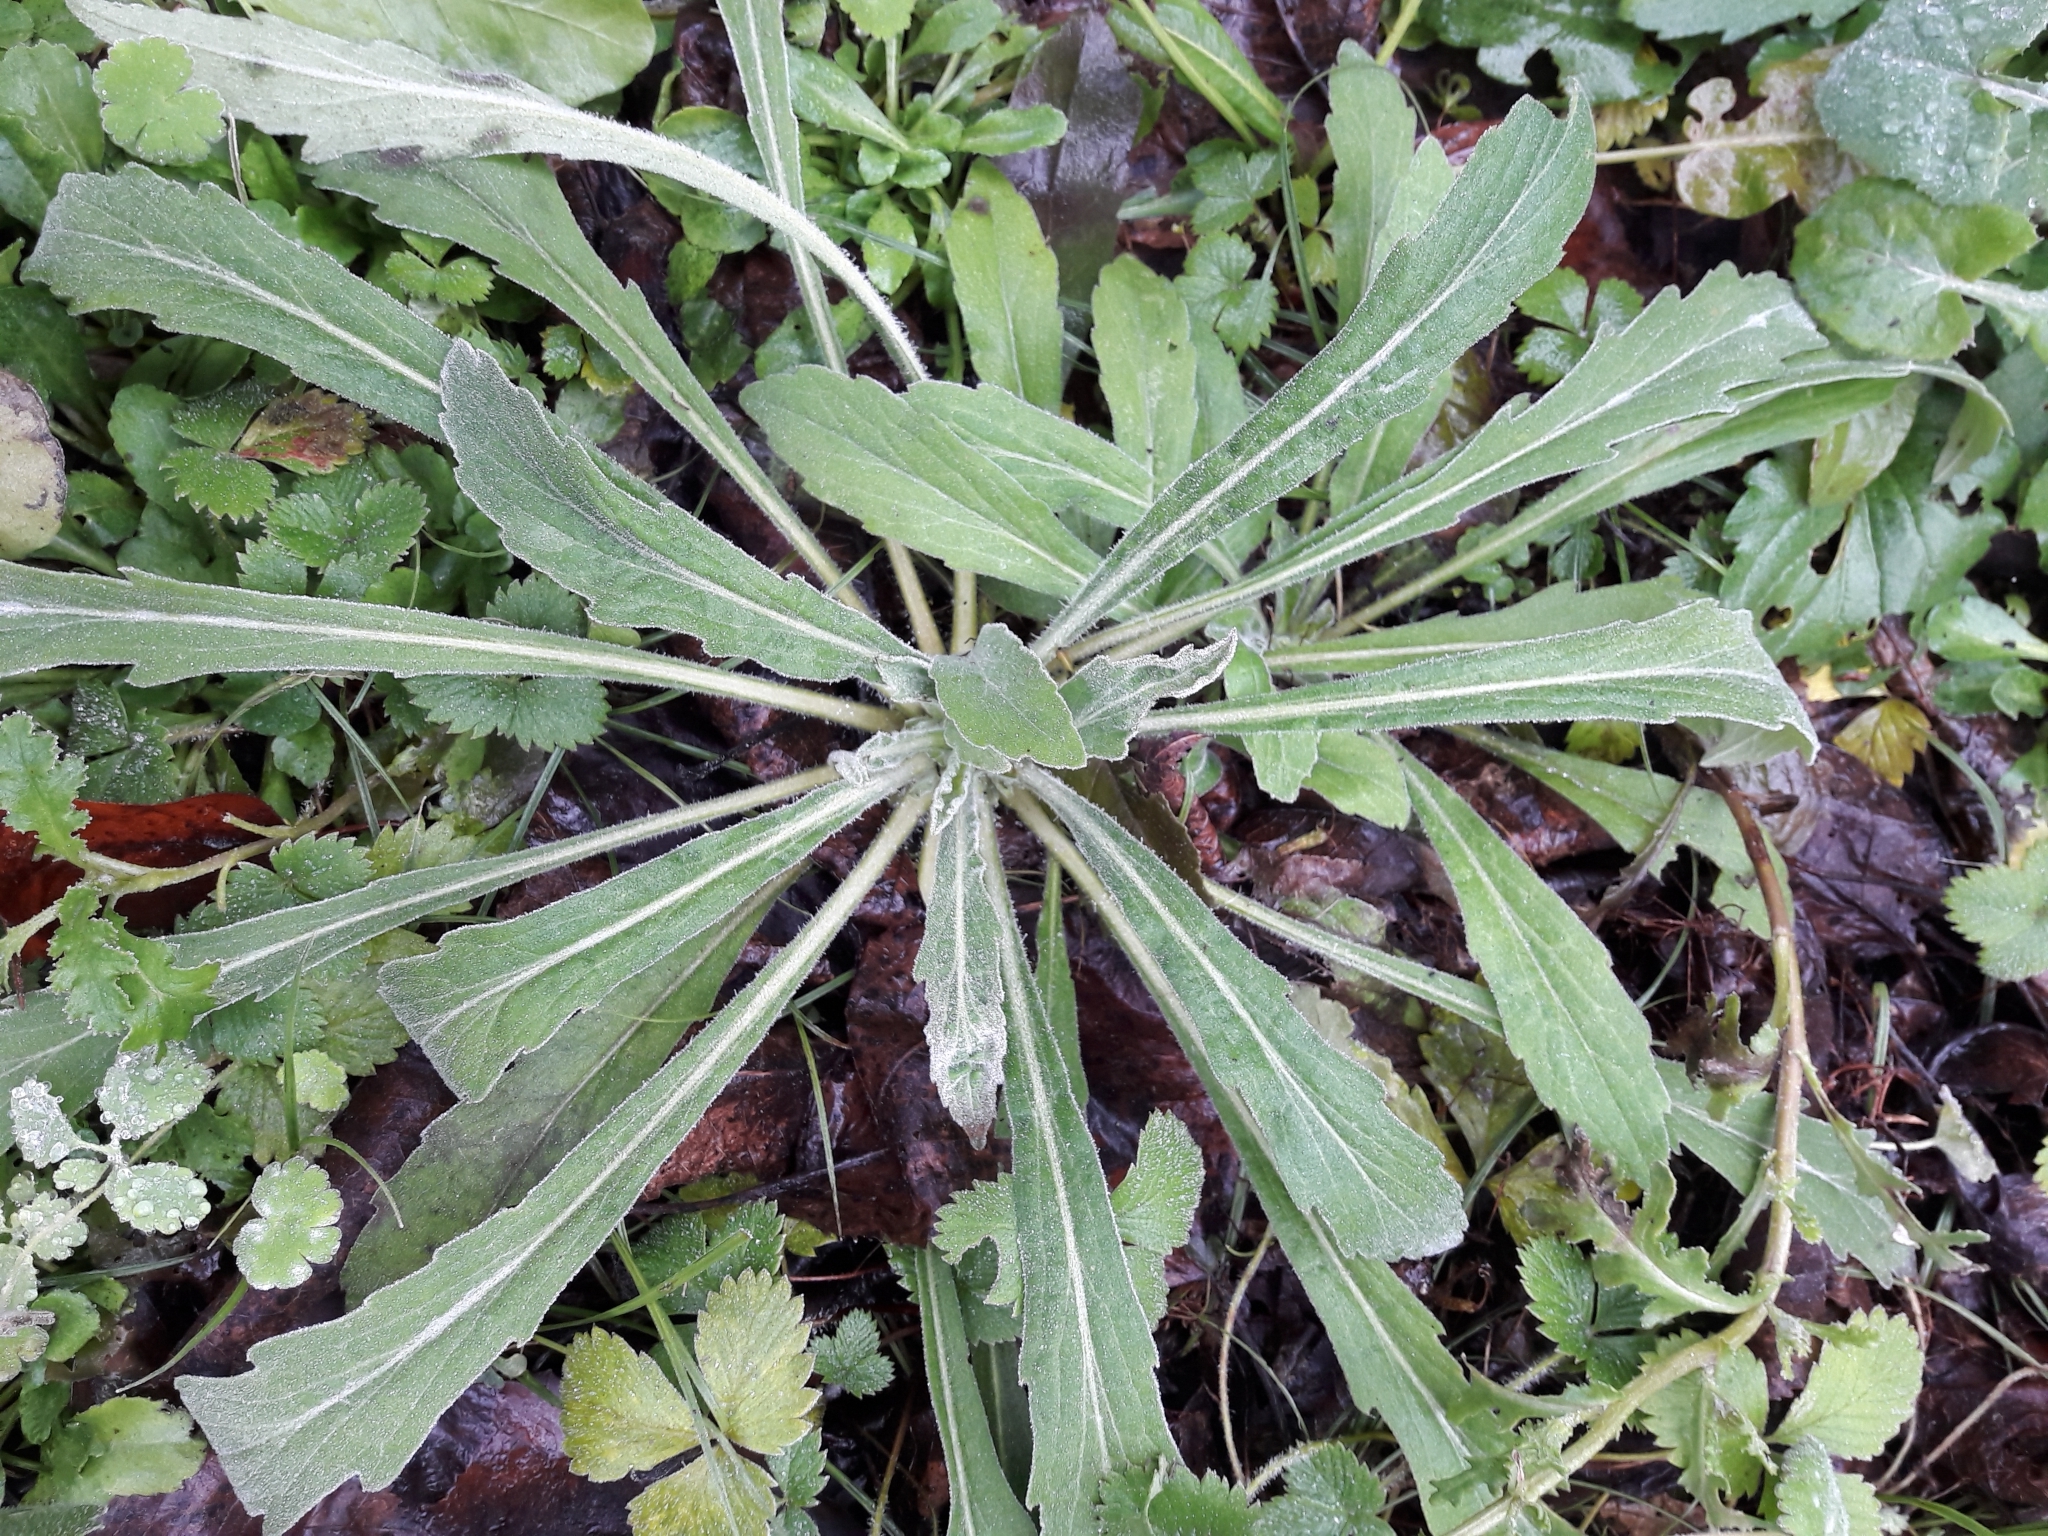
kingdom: Plantae
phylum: Tracheophyta
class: Magnoliopsida
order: Asterales
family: Asteraceae
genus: Erigeron
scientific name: Erigeron sumatrensis
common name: Daisy
